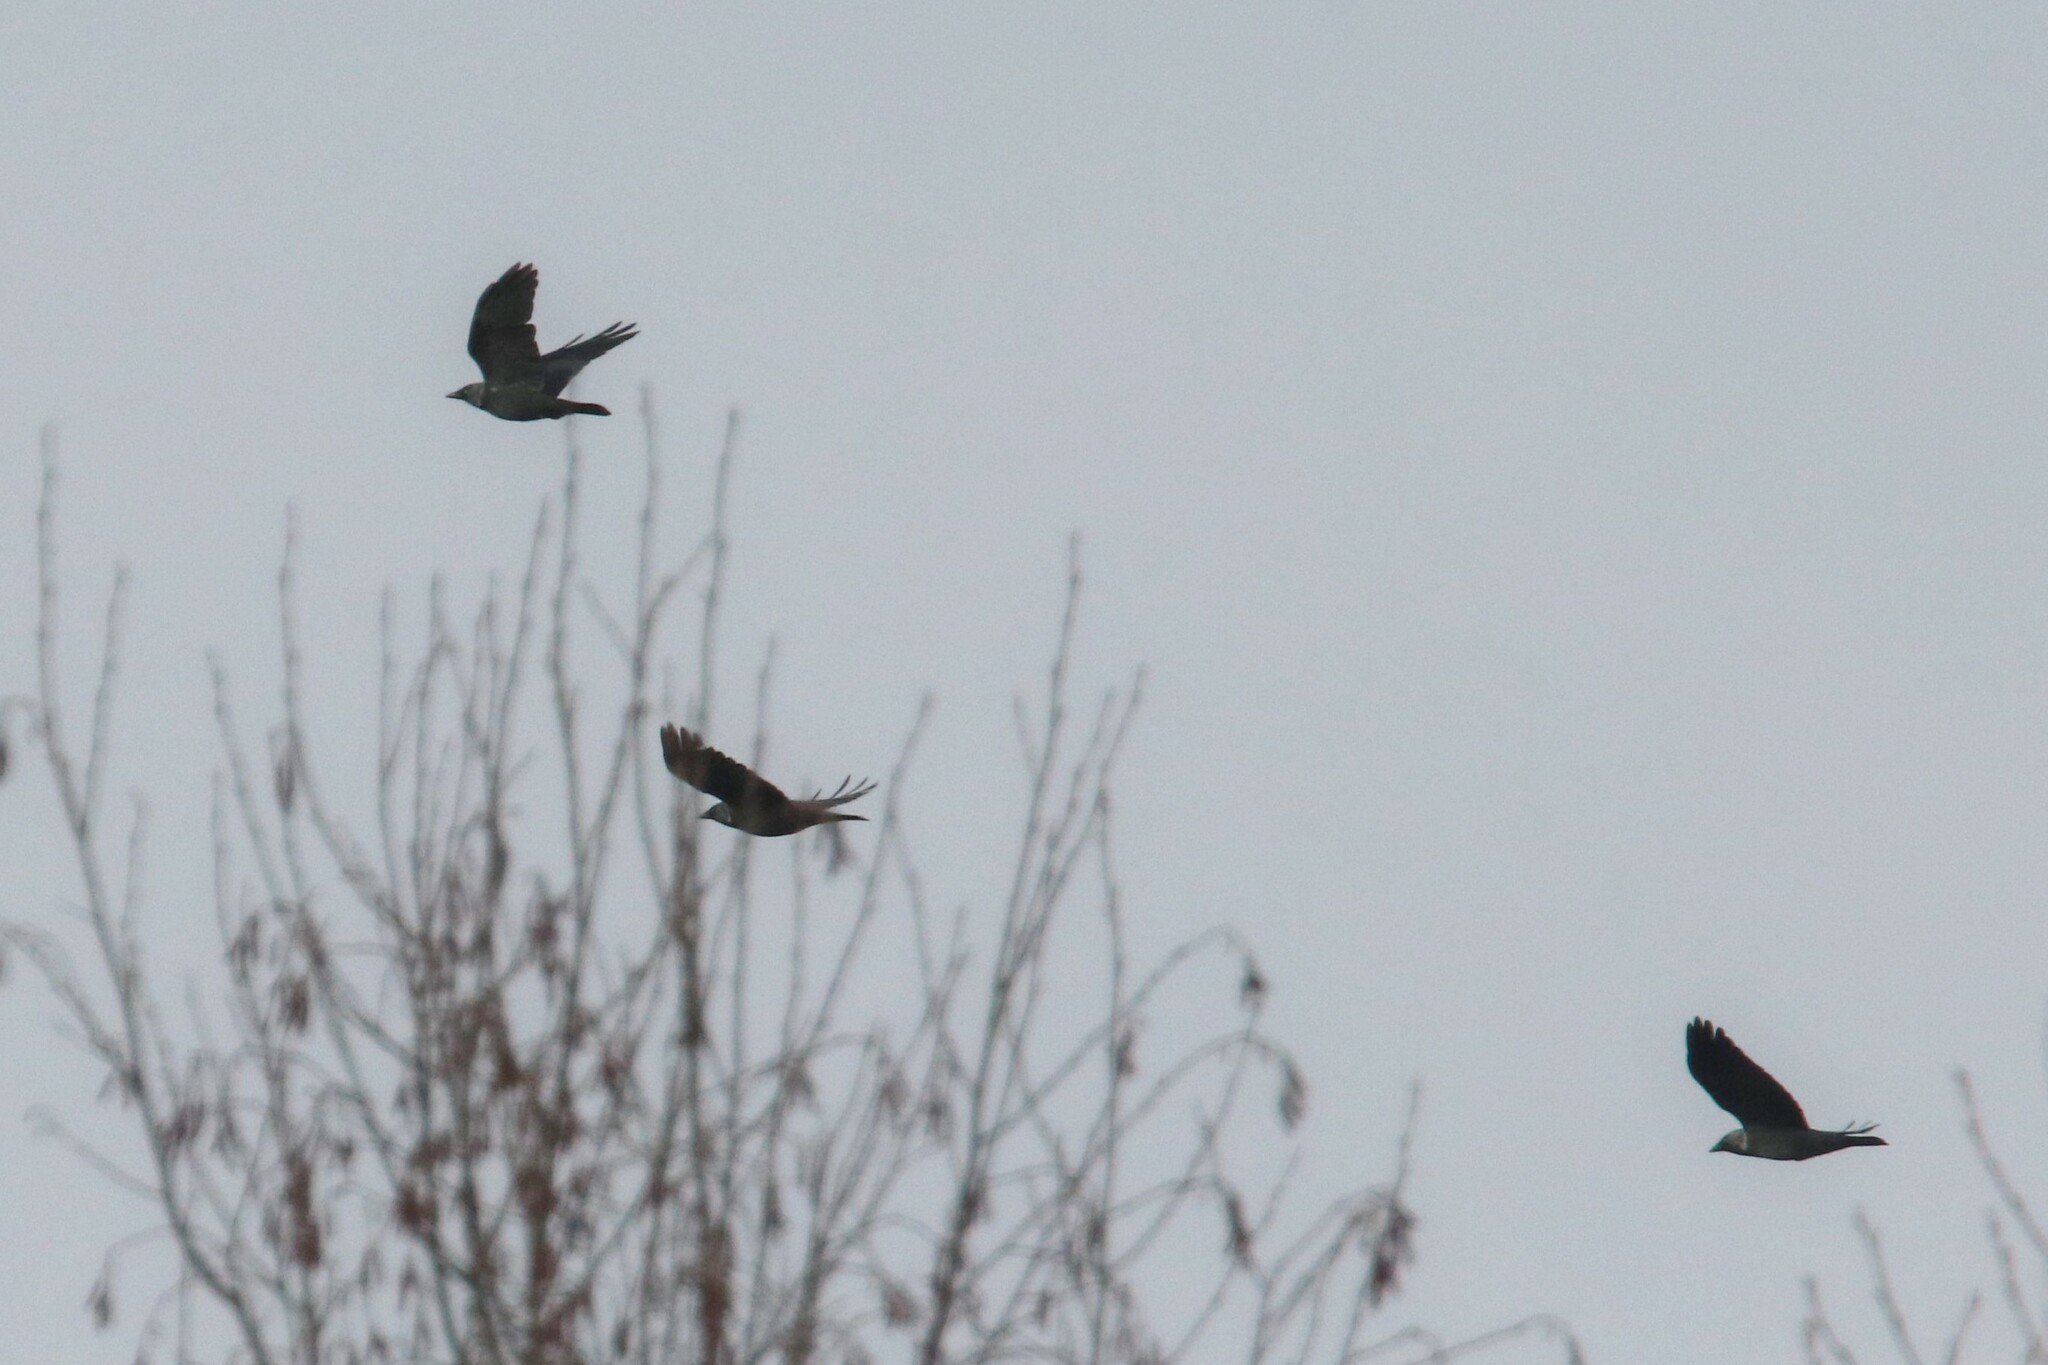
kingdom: Animalia
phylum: Chordata
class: Aves
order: Passeriformes
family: Corvidae
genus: Coloeus
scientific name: Coloeus monedula
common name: Western jackdaw
